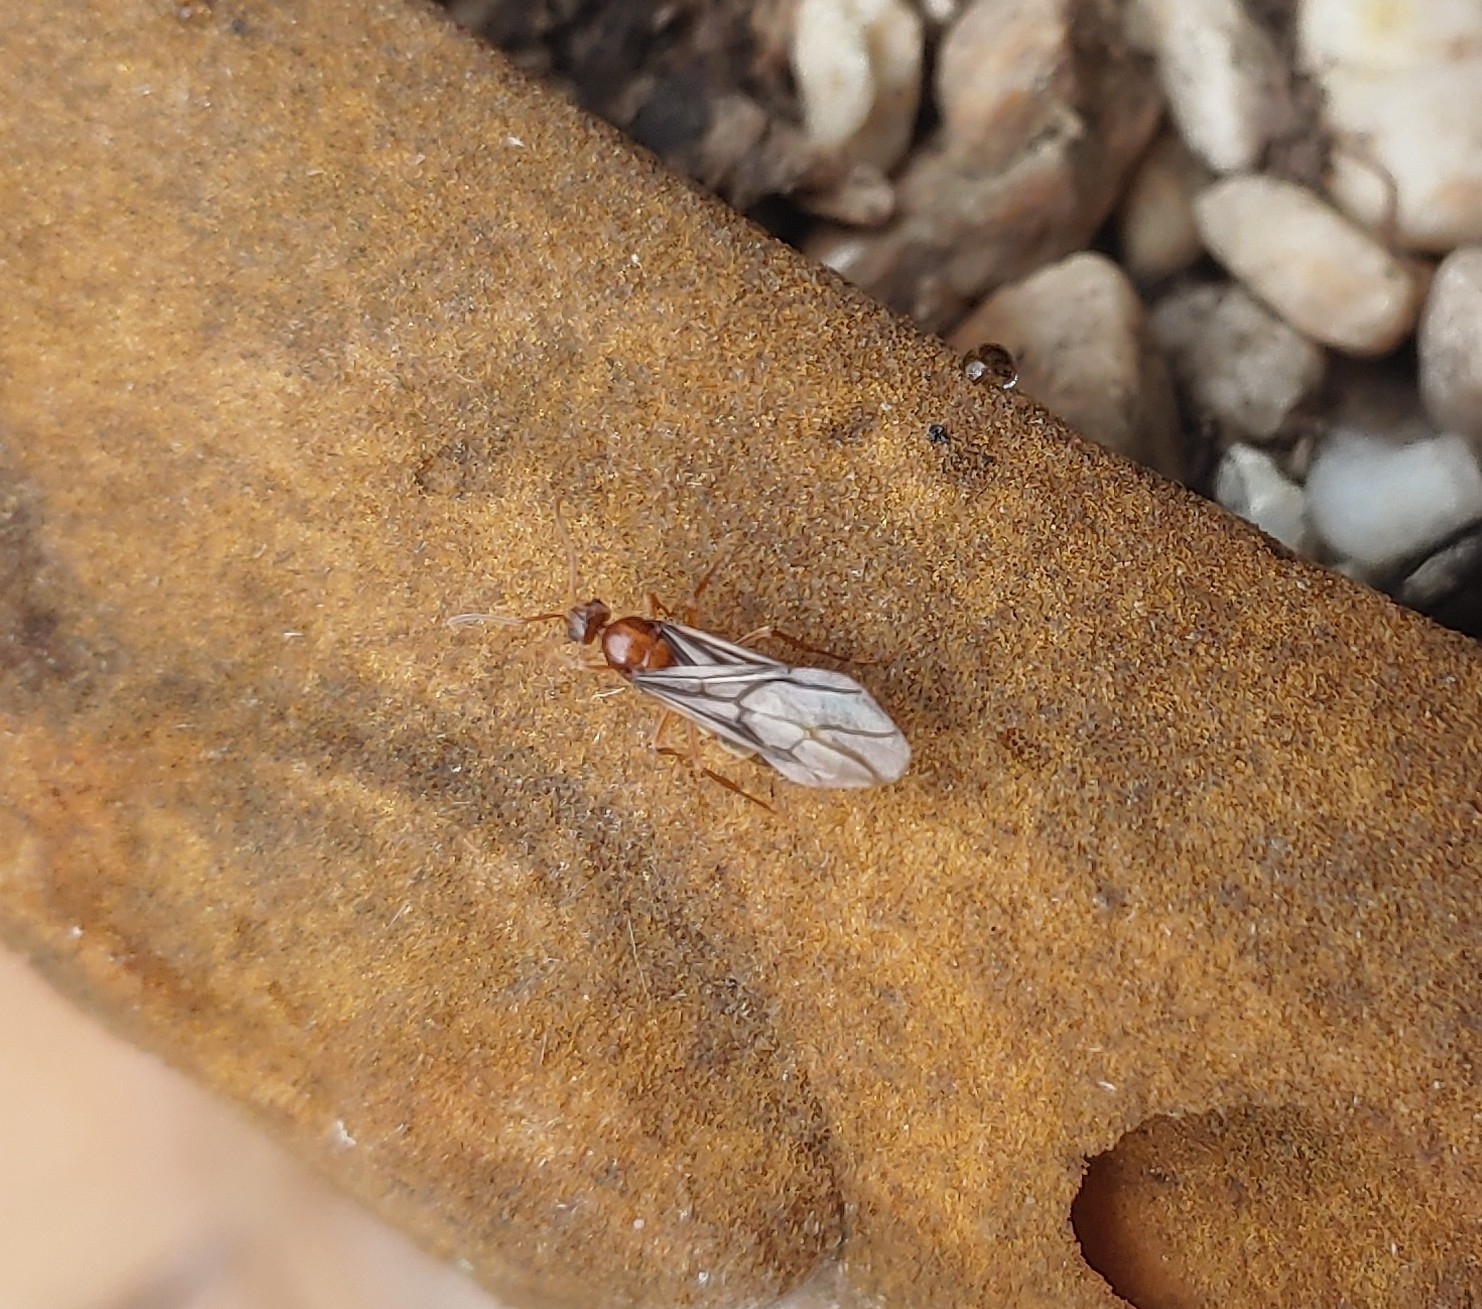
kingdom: Animalia
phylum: Arthropoda
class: Insecta
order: Hymenoptera
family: Formicidae
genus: Prenolepis
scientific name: Prenolepis imparis
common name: Small honey ant
